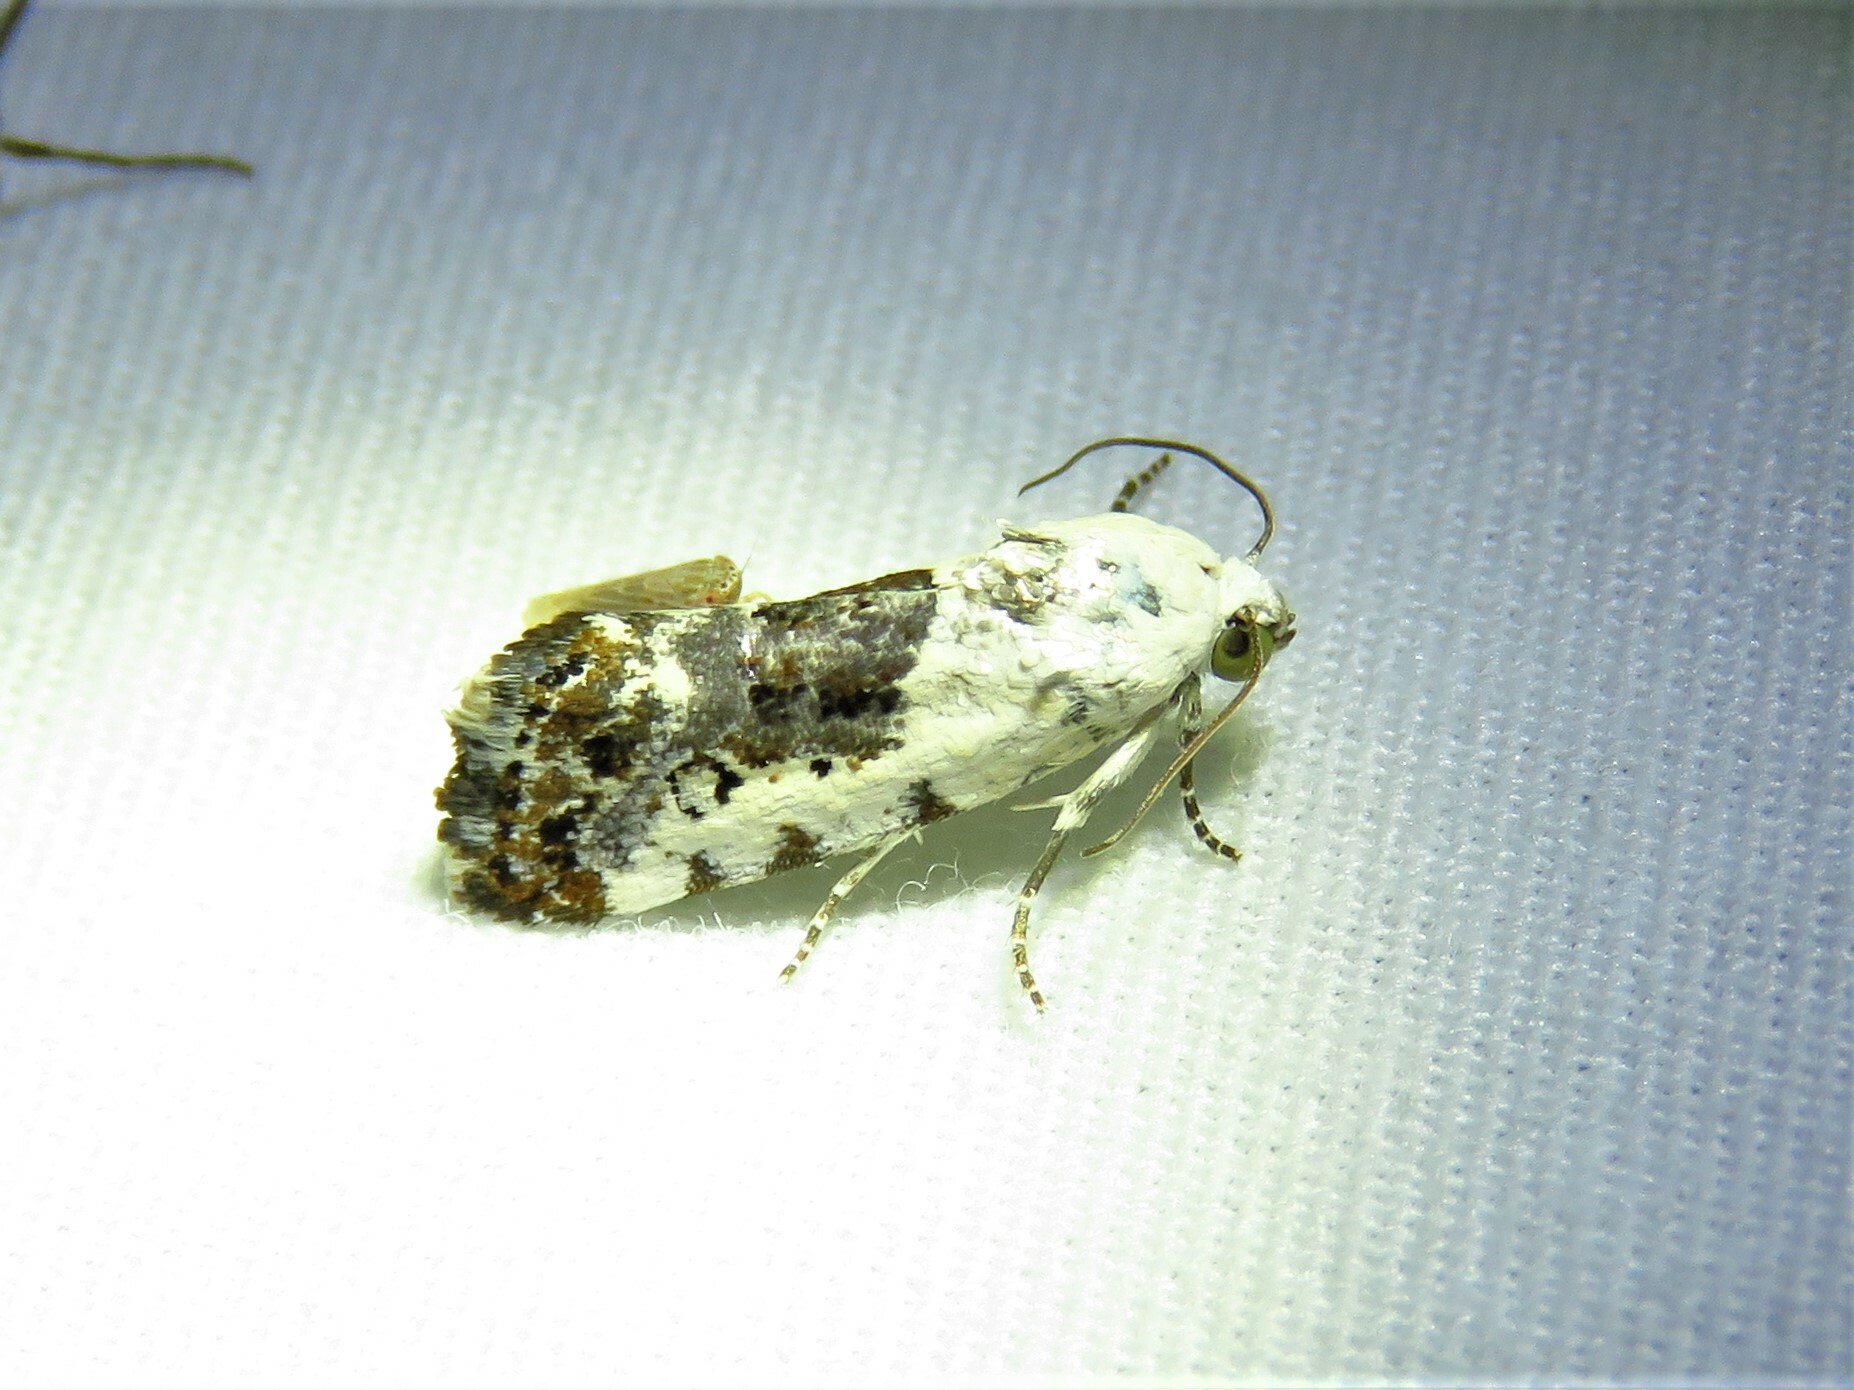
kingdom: Animalia
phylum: Arthropoda
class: Insecta
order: Lepidoptera
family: Noctuidae
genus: Acontia
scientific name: Acontia phecolisca
